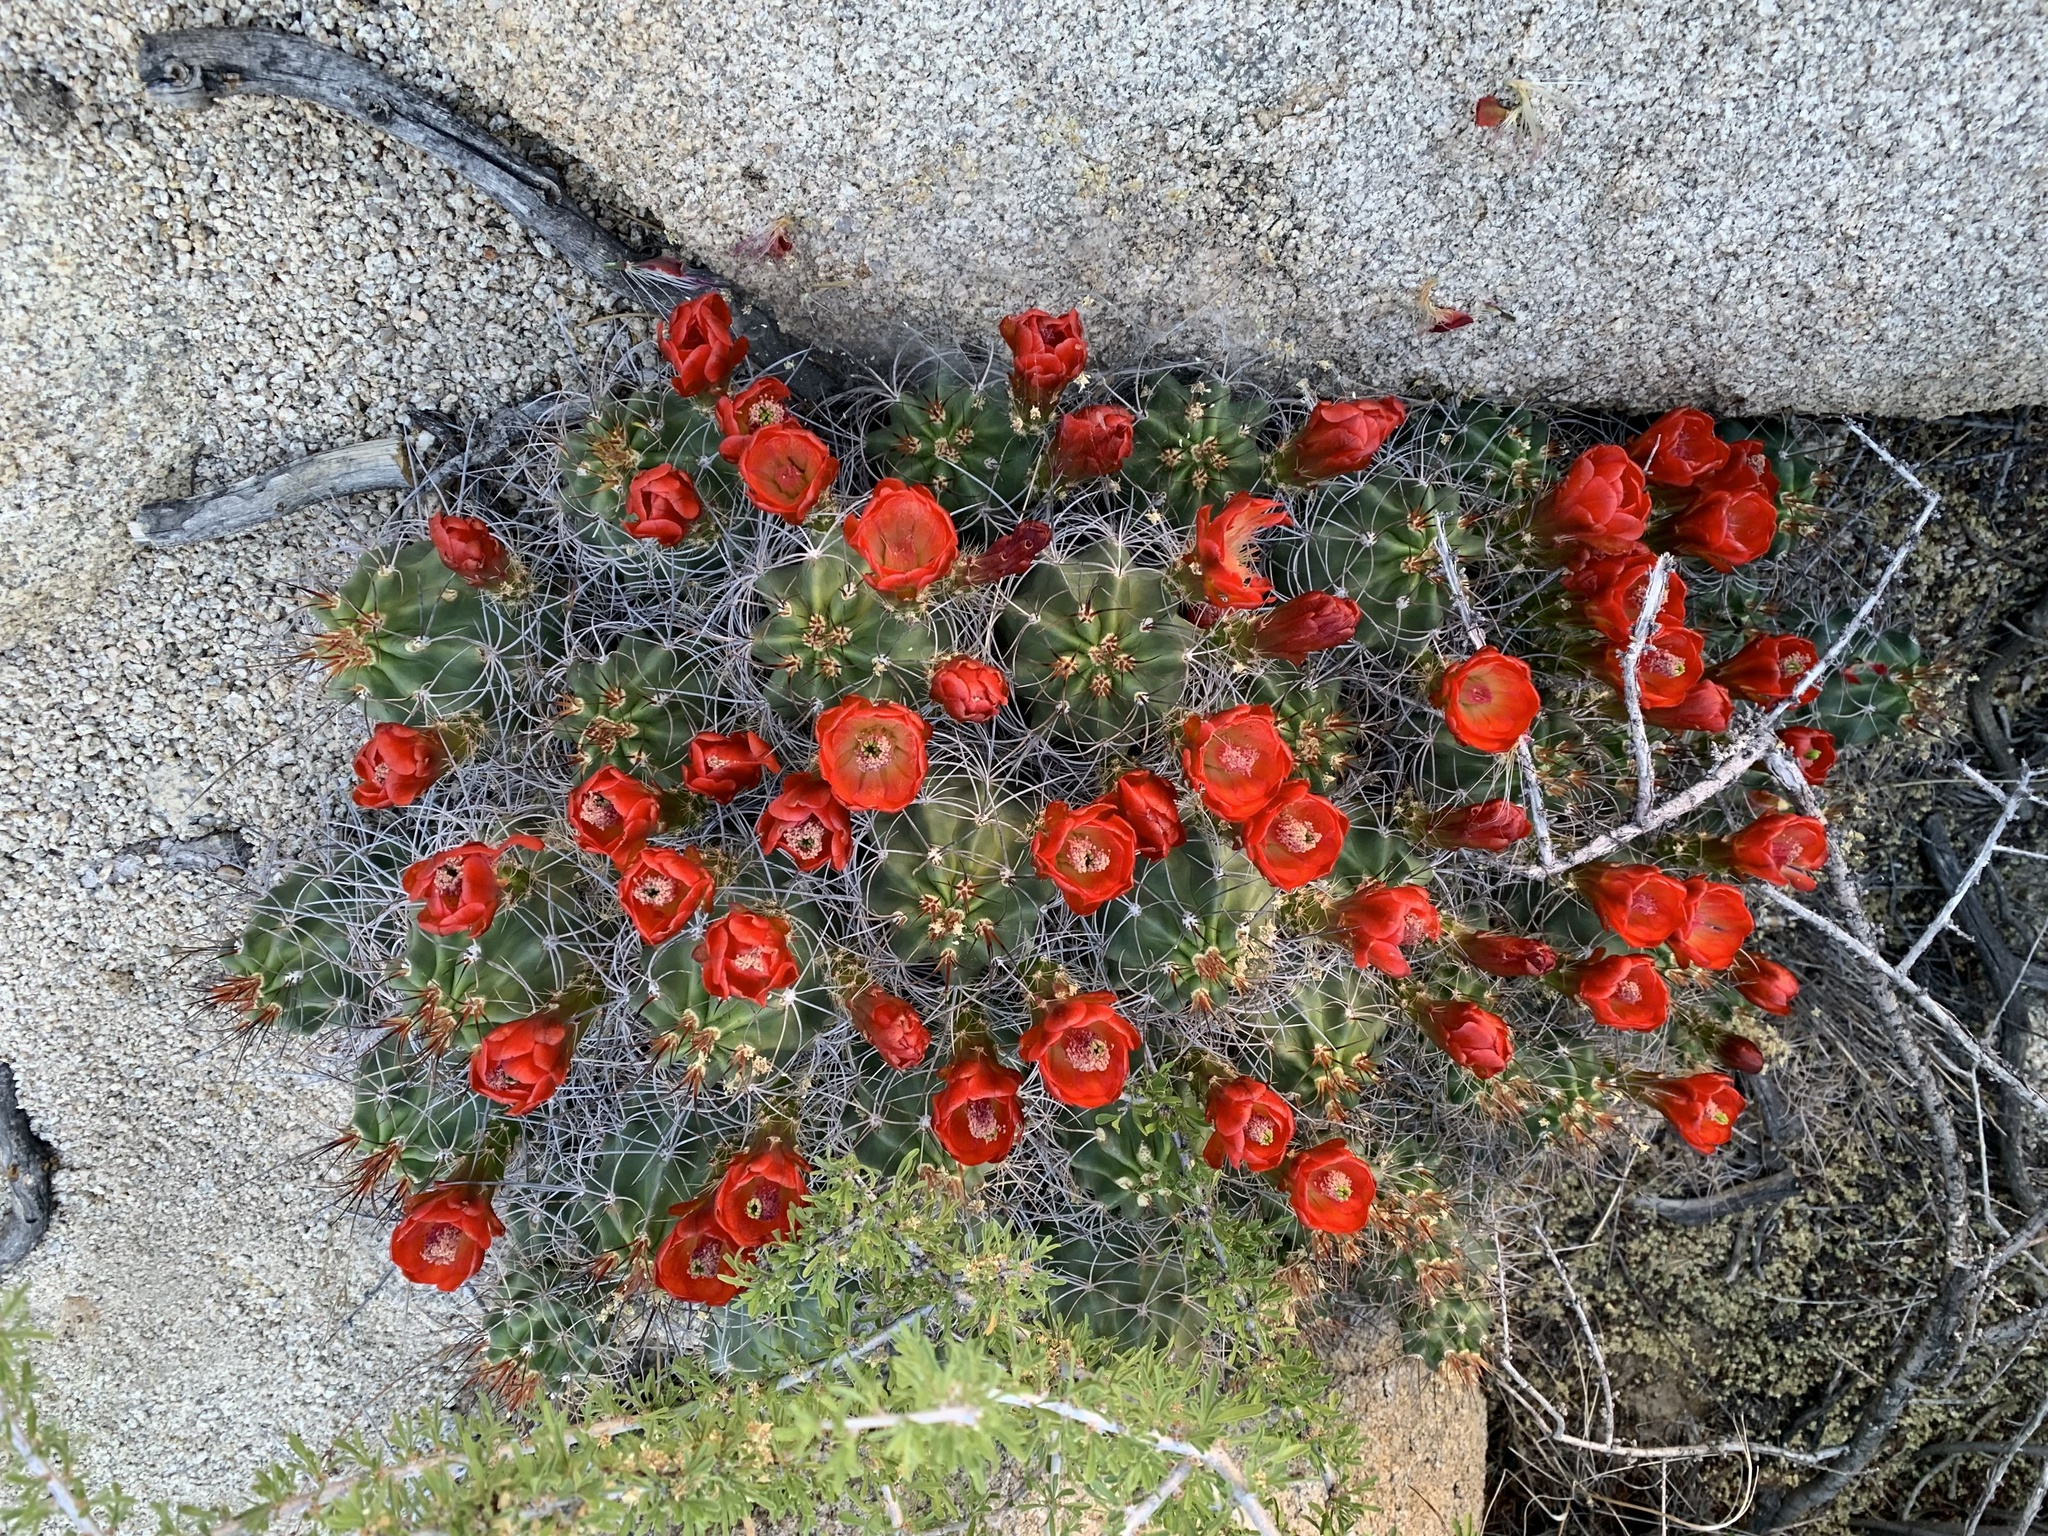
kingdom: Plantae
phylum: Tracheophyta
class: Magnoliopsida
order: Caryophyllales
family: Cactaceae
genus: Echinocereus
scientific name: Echinocereus triglochidiatus
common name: Claretcup hedgehog
